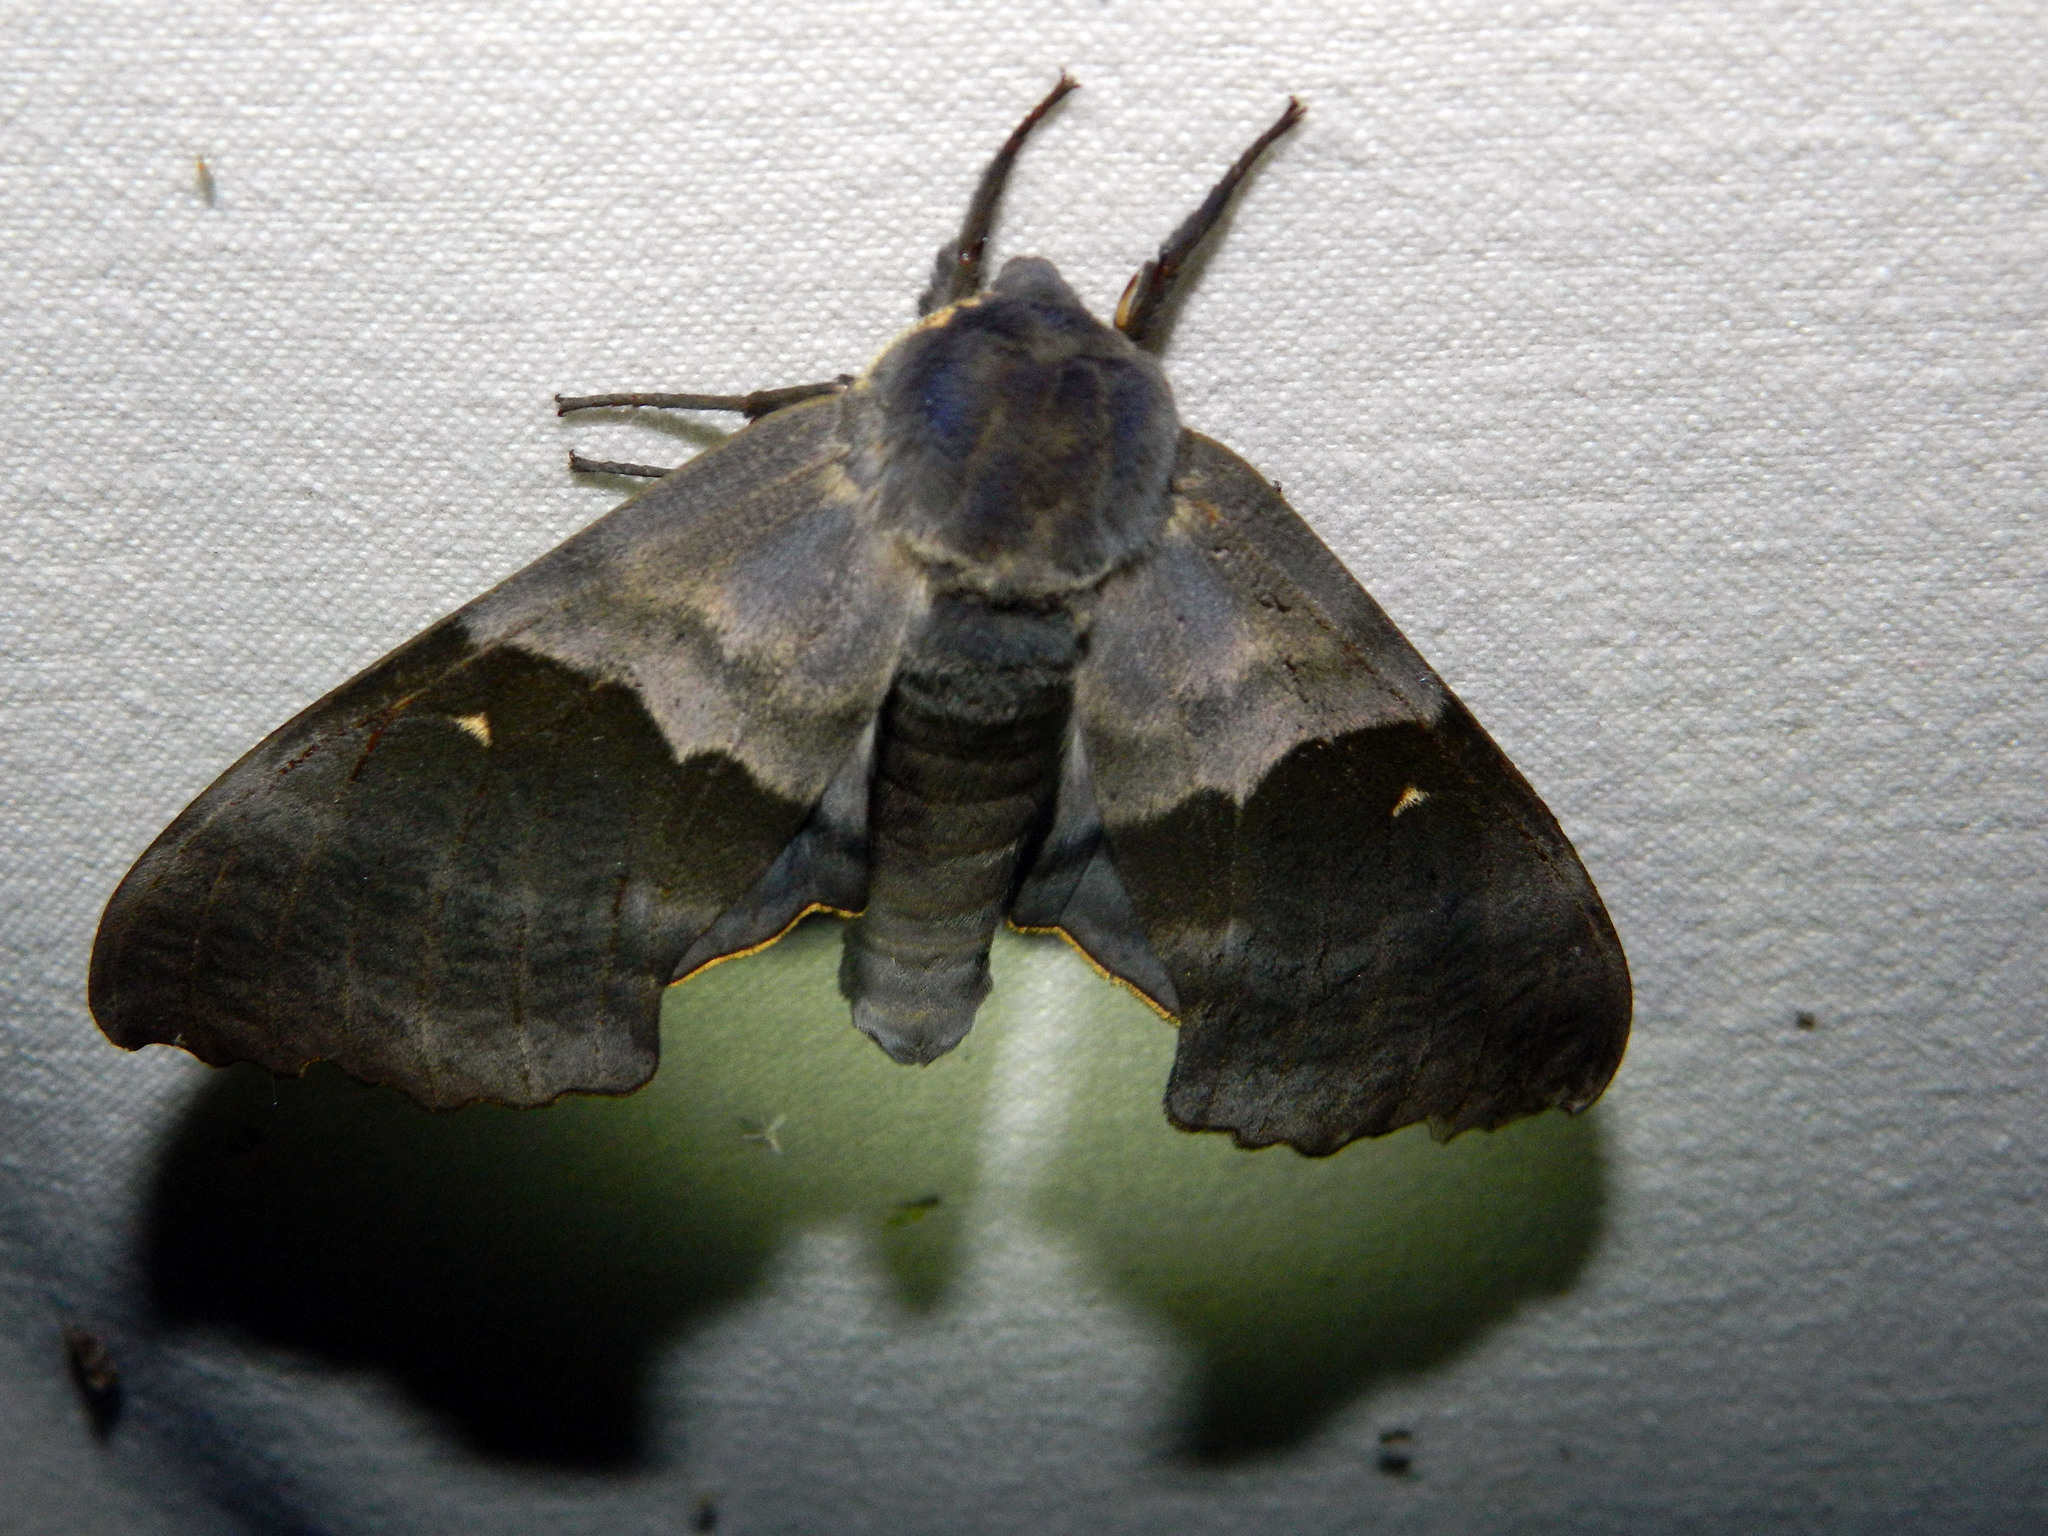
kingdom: Animalia
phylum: Arthropoda
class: Insecta
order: Lepidoptera
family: Sphingidae
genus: Pachysphinx
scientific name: Pachysphinx modesta
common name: Big poplar sphinx
